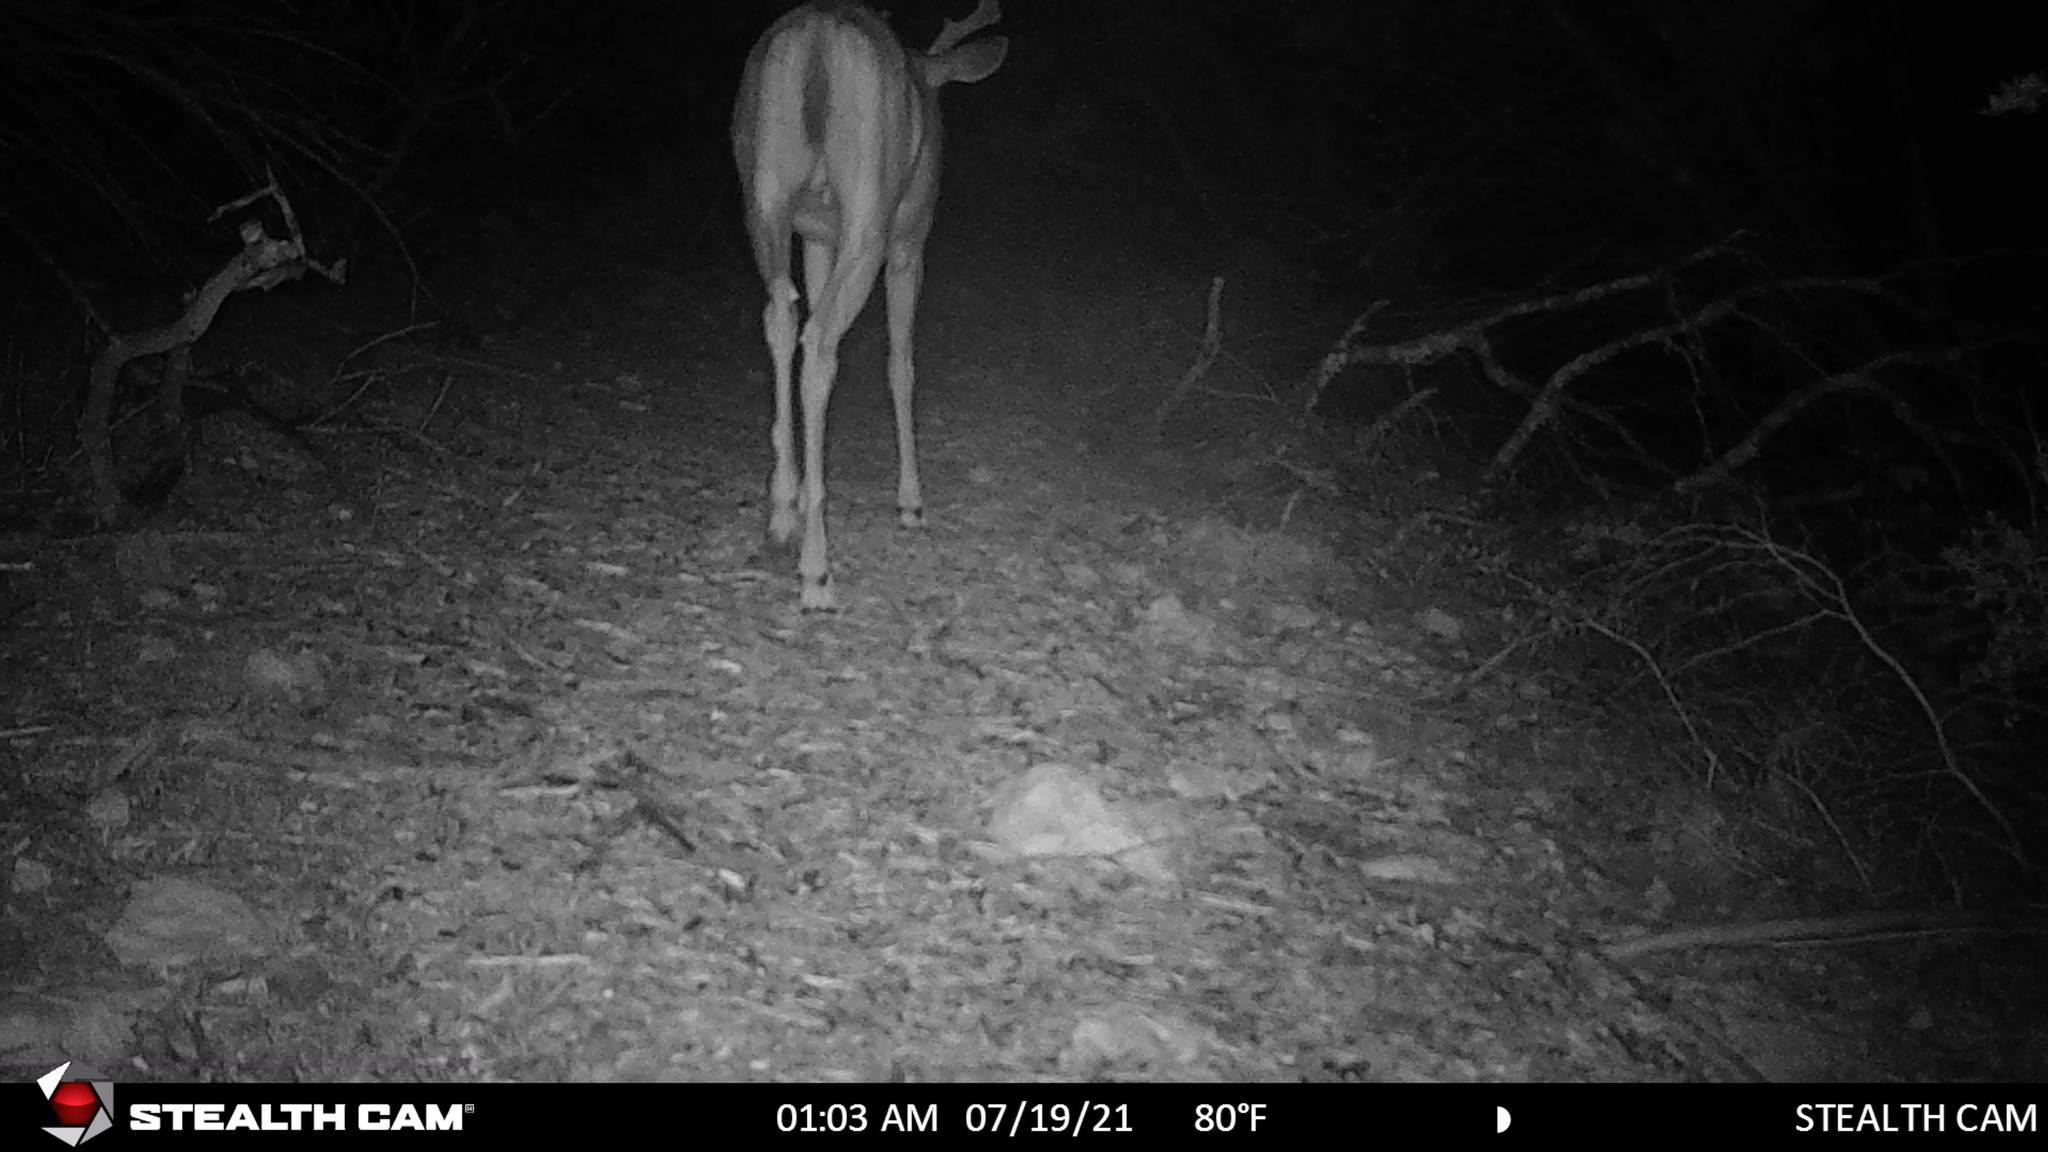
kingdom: Animalia
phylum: Chordata
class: Mammalia
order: Artiodactyla
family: Cervidae
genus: Odocoileus
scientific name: Odocoileus virginianus
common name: White-tailed deer
